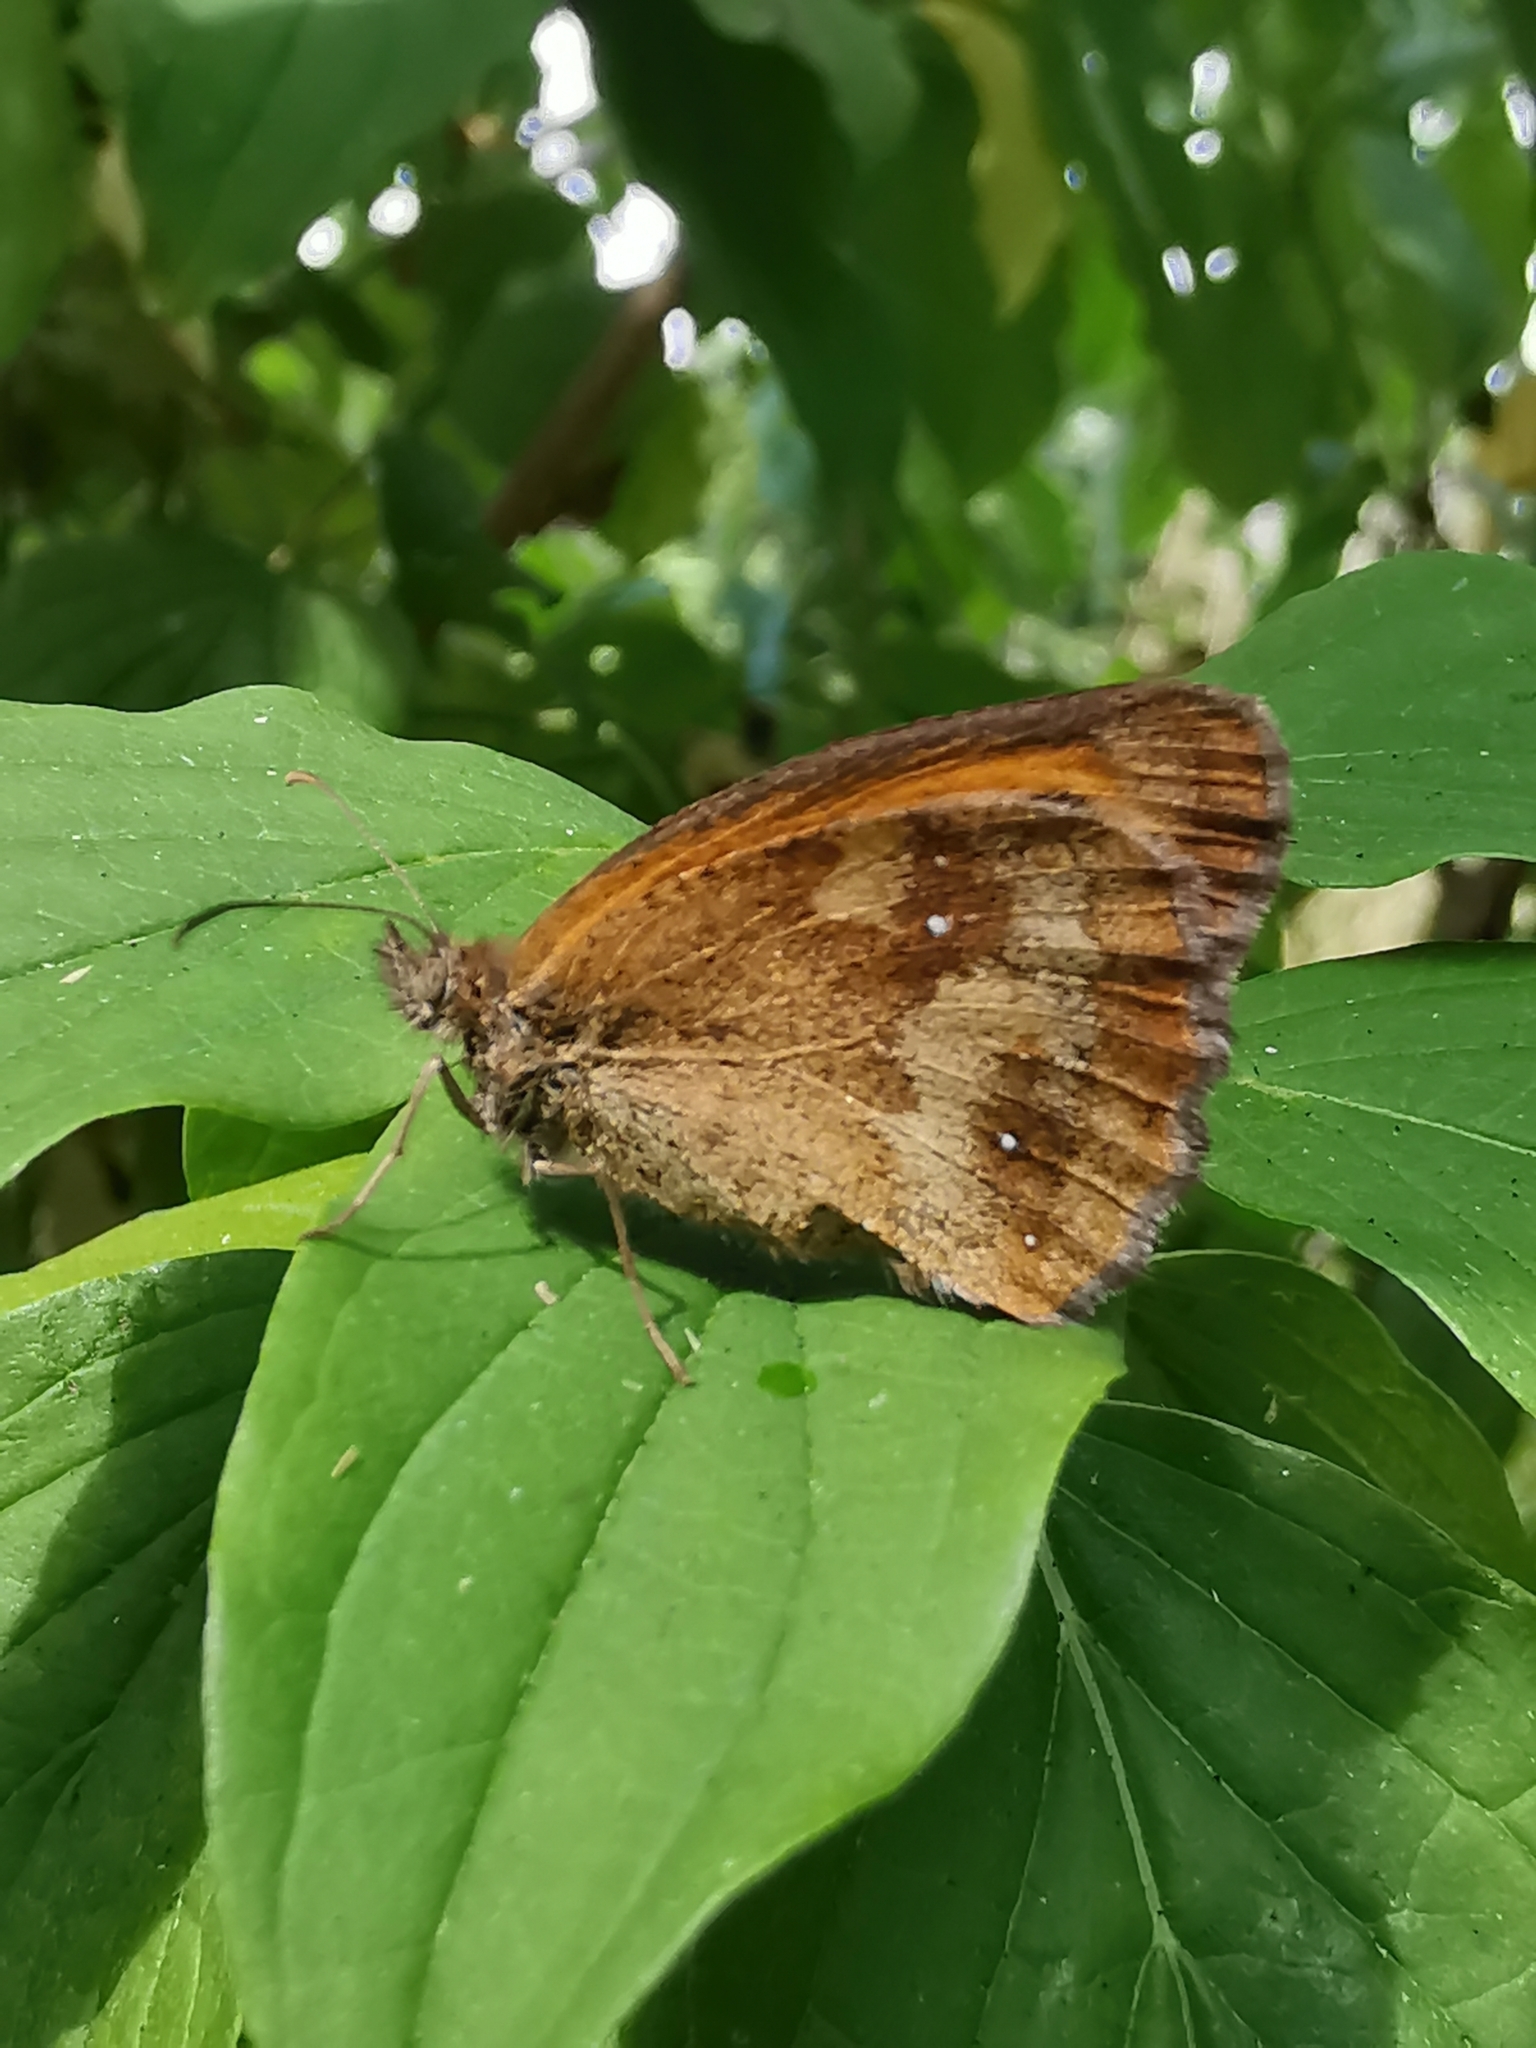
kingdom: Animalia
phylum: Arthropoda
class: Insecta
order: Lepidoptera
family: Nymphalidae
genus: Pyronia
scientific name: Pyronia tithonus
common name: Gatekeeper
